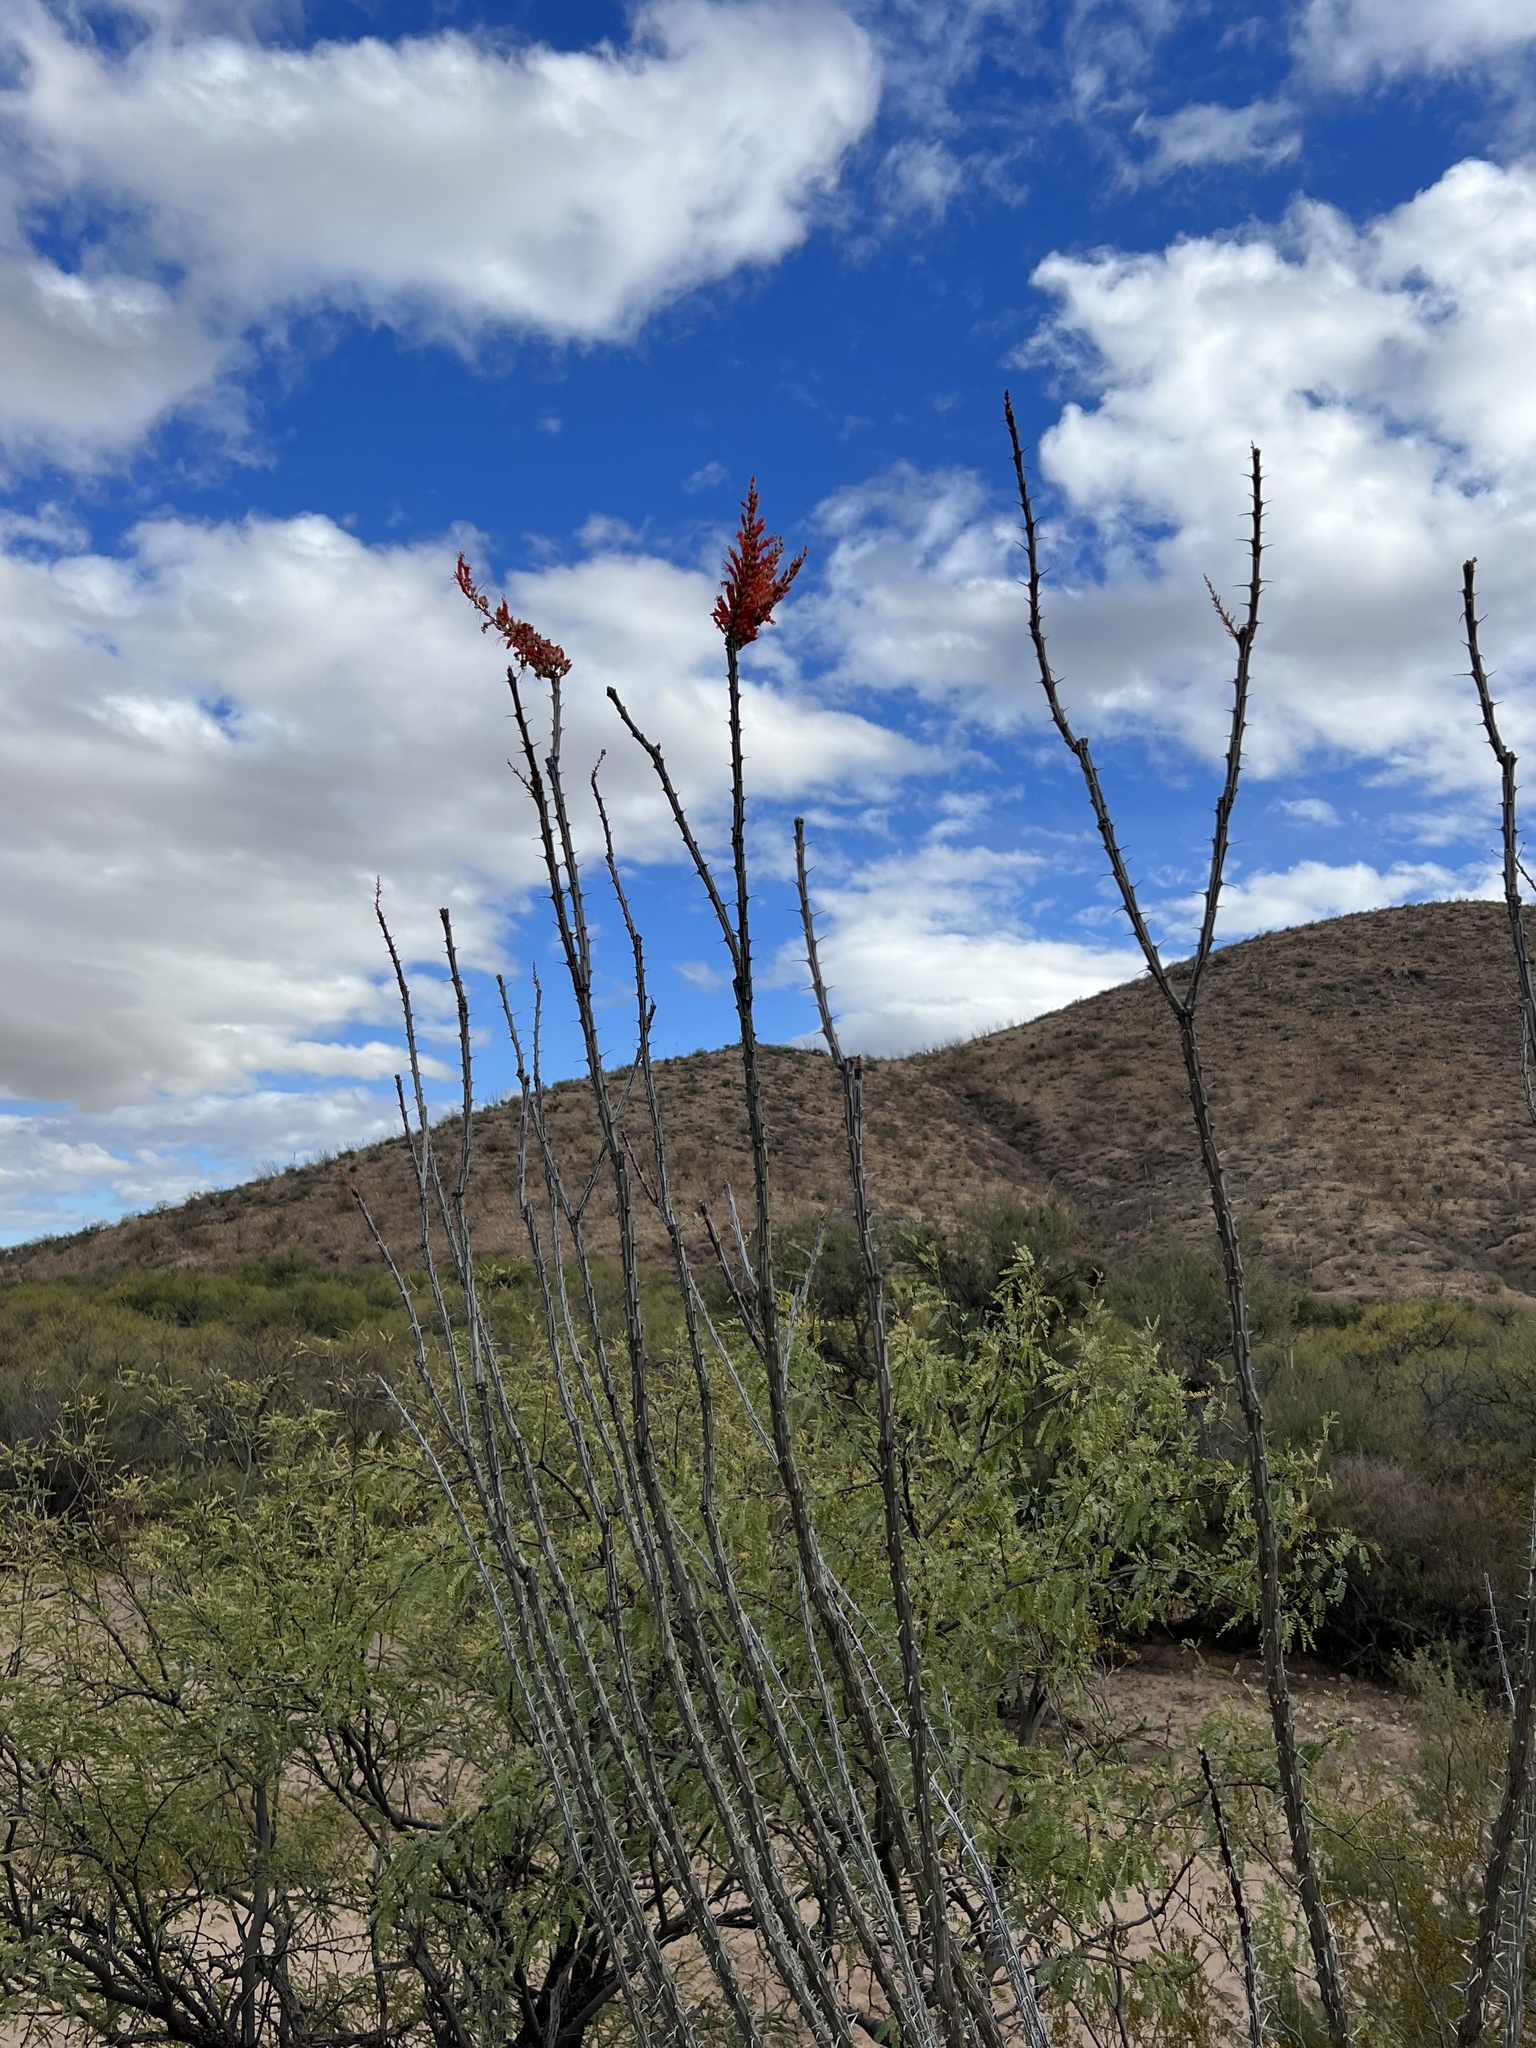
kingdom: Plantae
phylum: Tracheophyta
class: Magnoliopsida
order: Ericales
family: Fouquieriaceae
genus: Fouquieria
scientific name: Fouquieria splendens
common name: Vine-cactus
